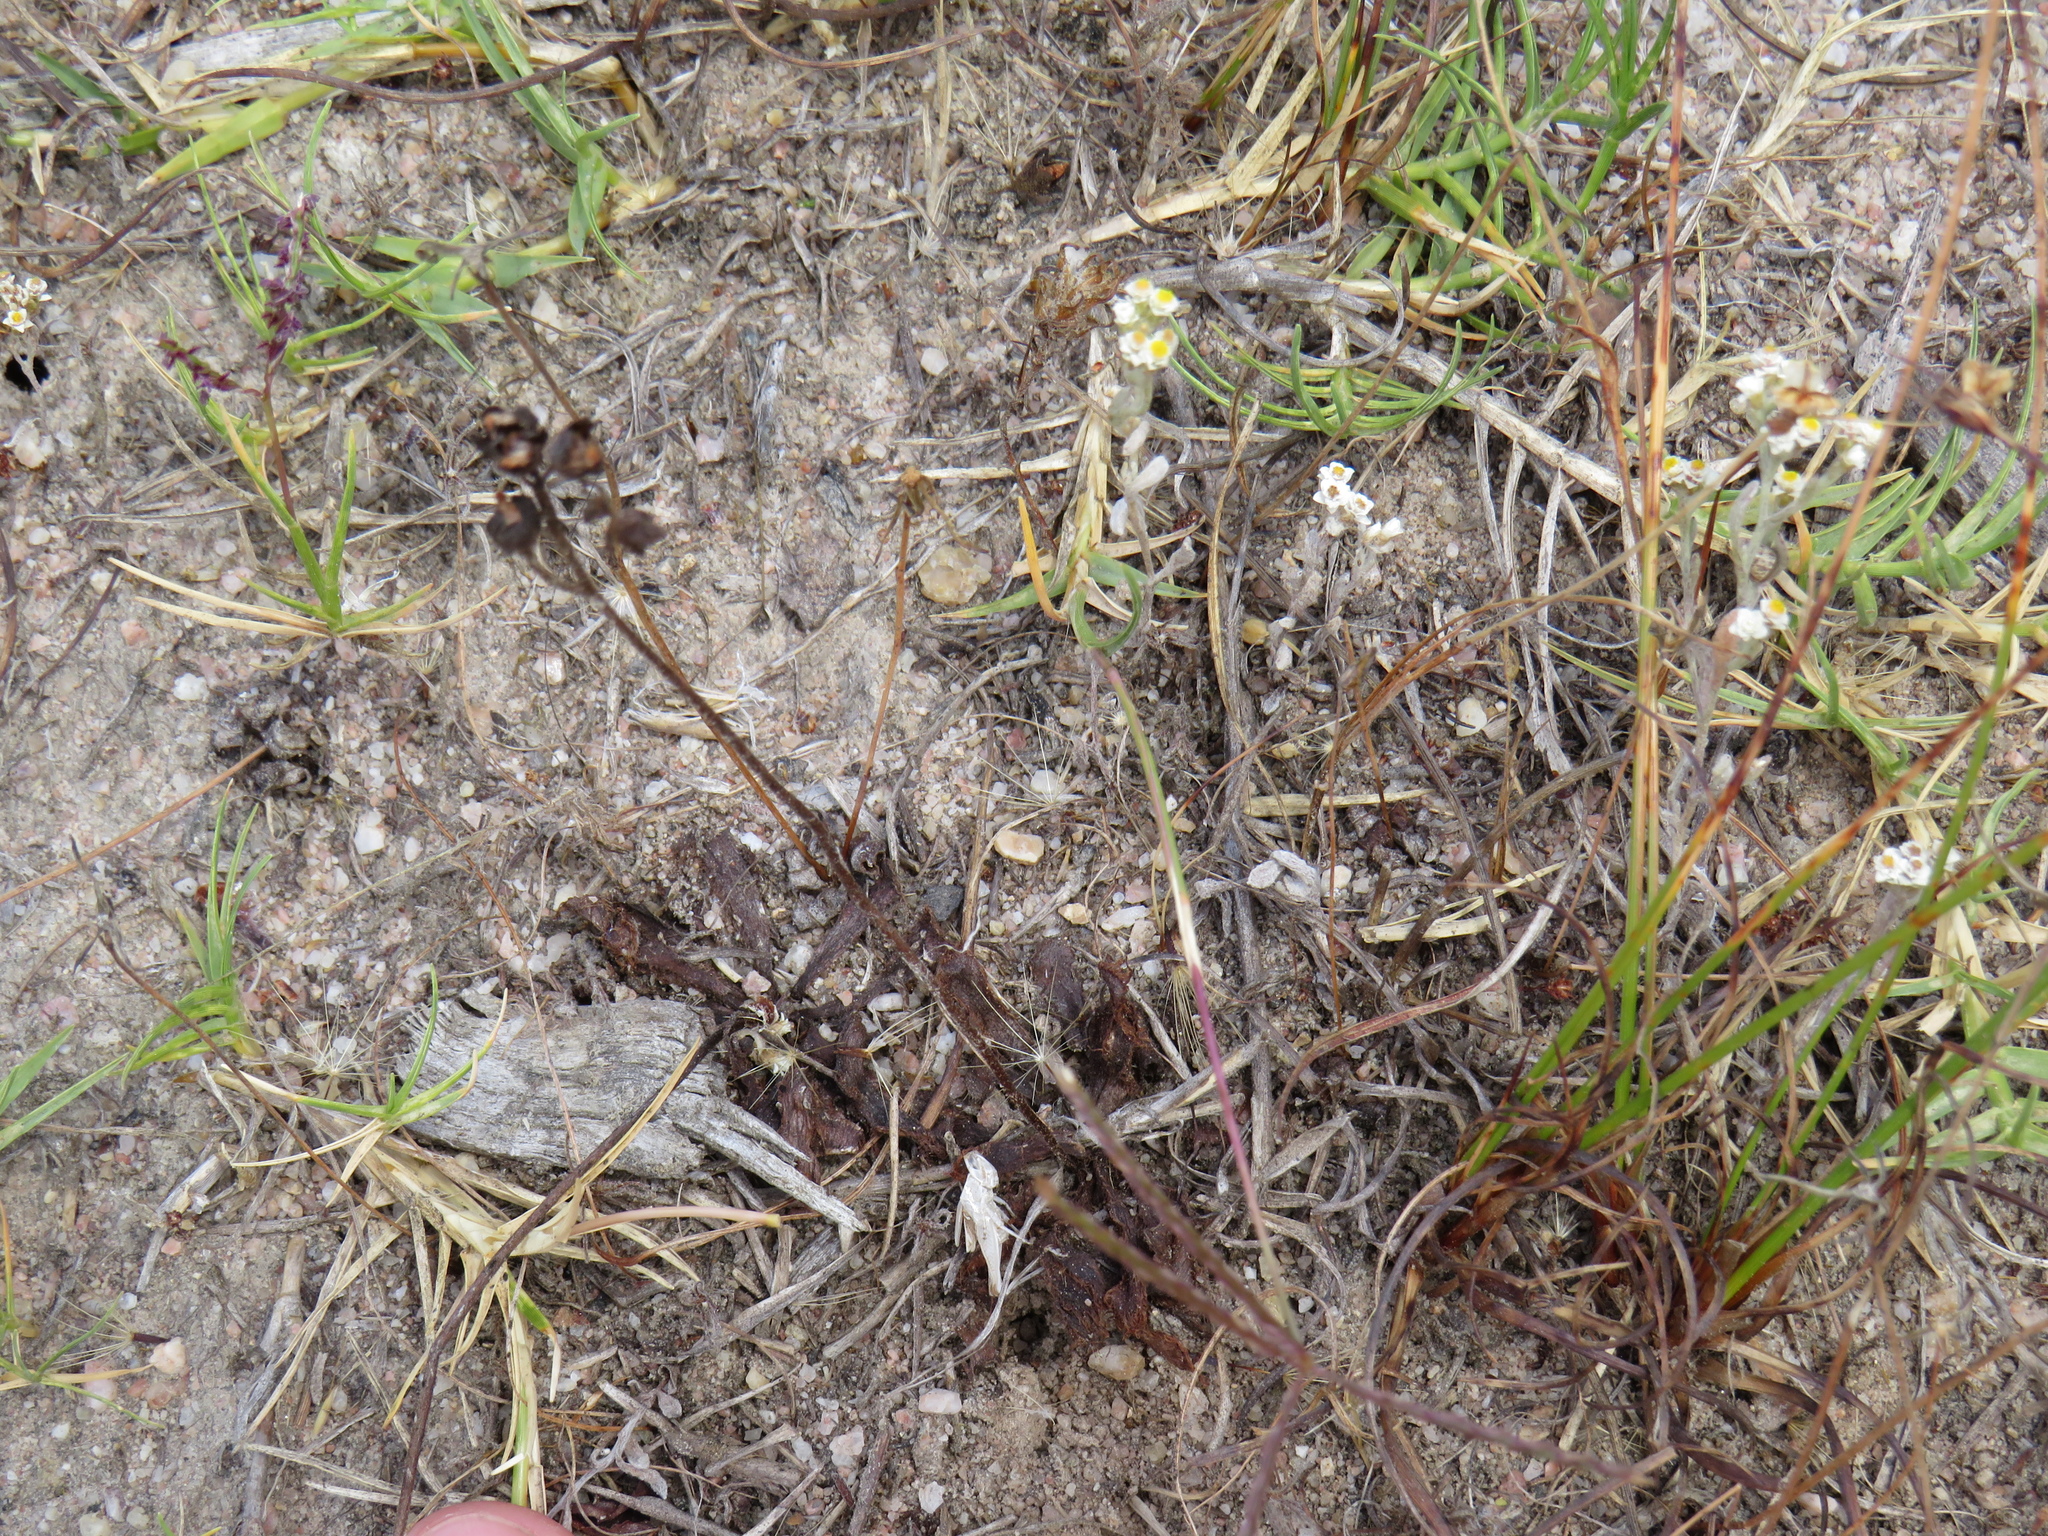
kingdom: Plantae
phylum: Tracheophyta
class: Magnoliopsida
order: Caryophyllales
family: Droseraceae
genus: Drosera
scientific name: Drosera trinervia
